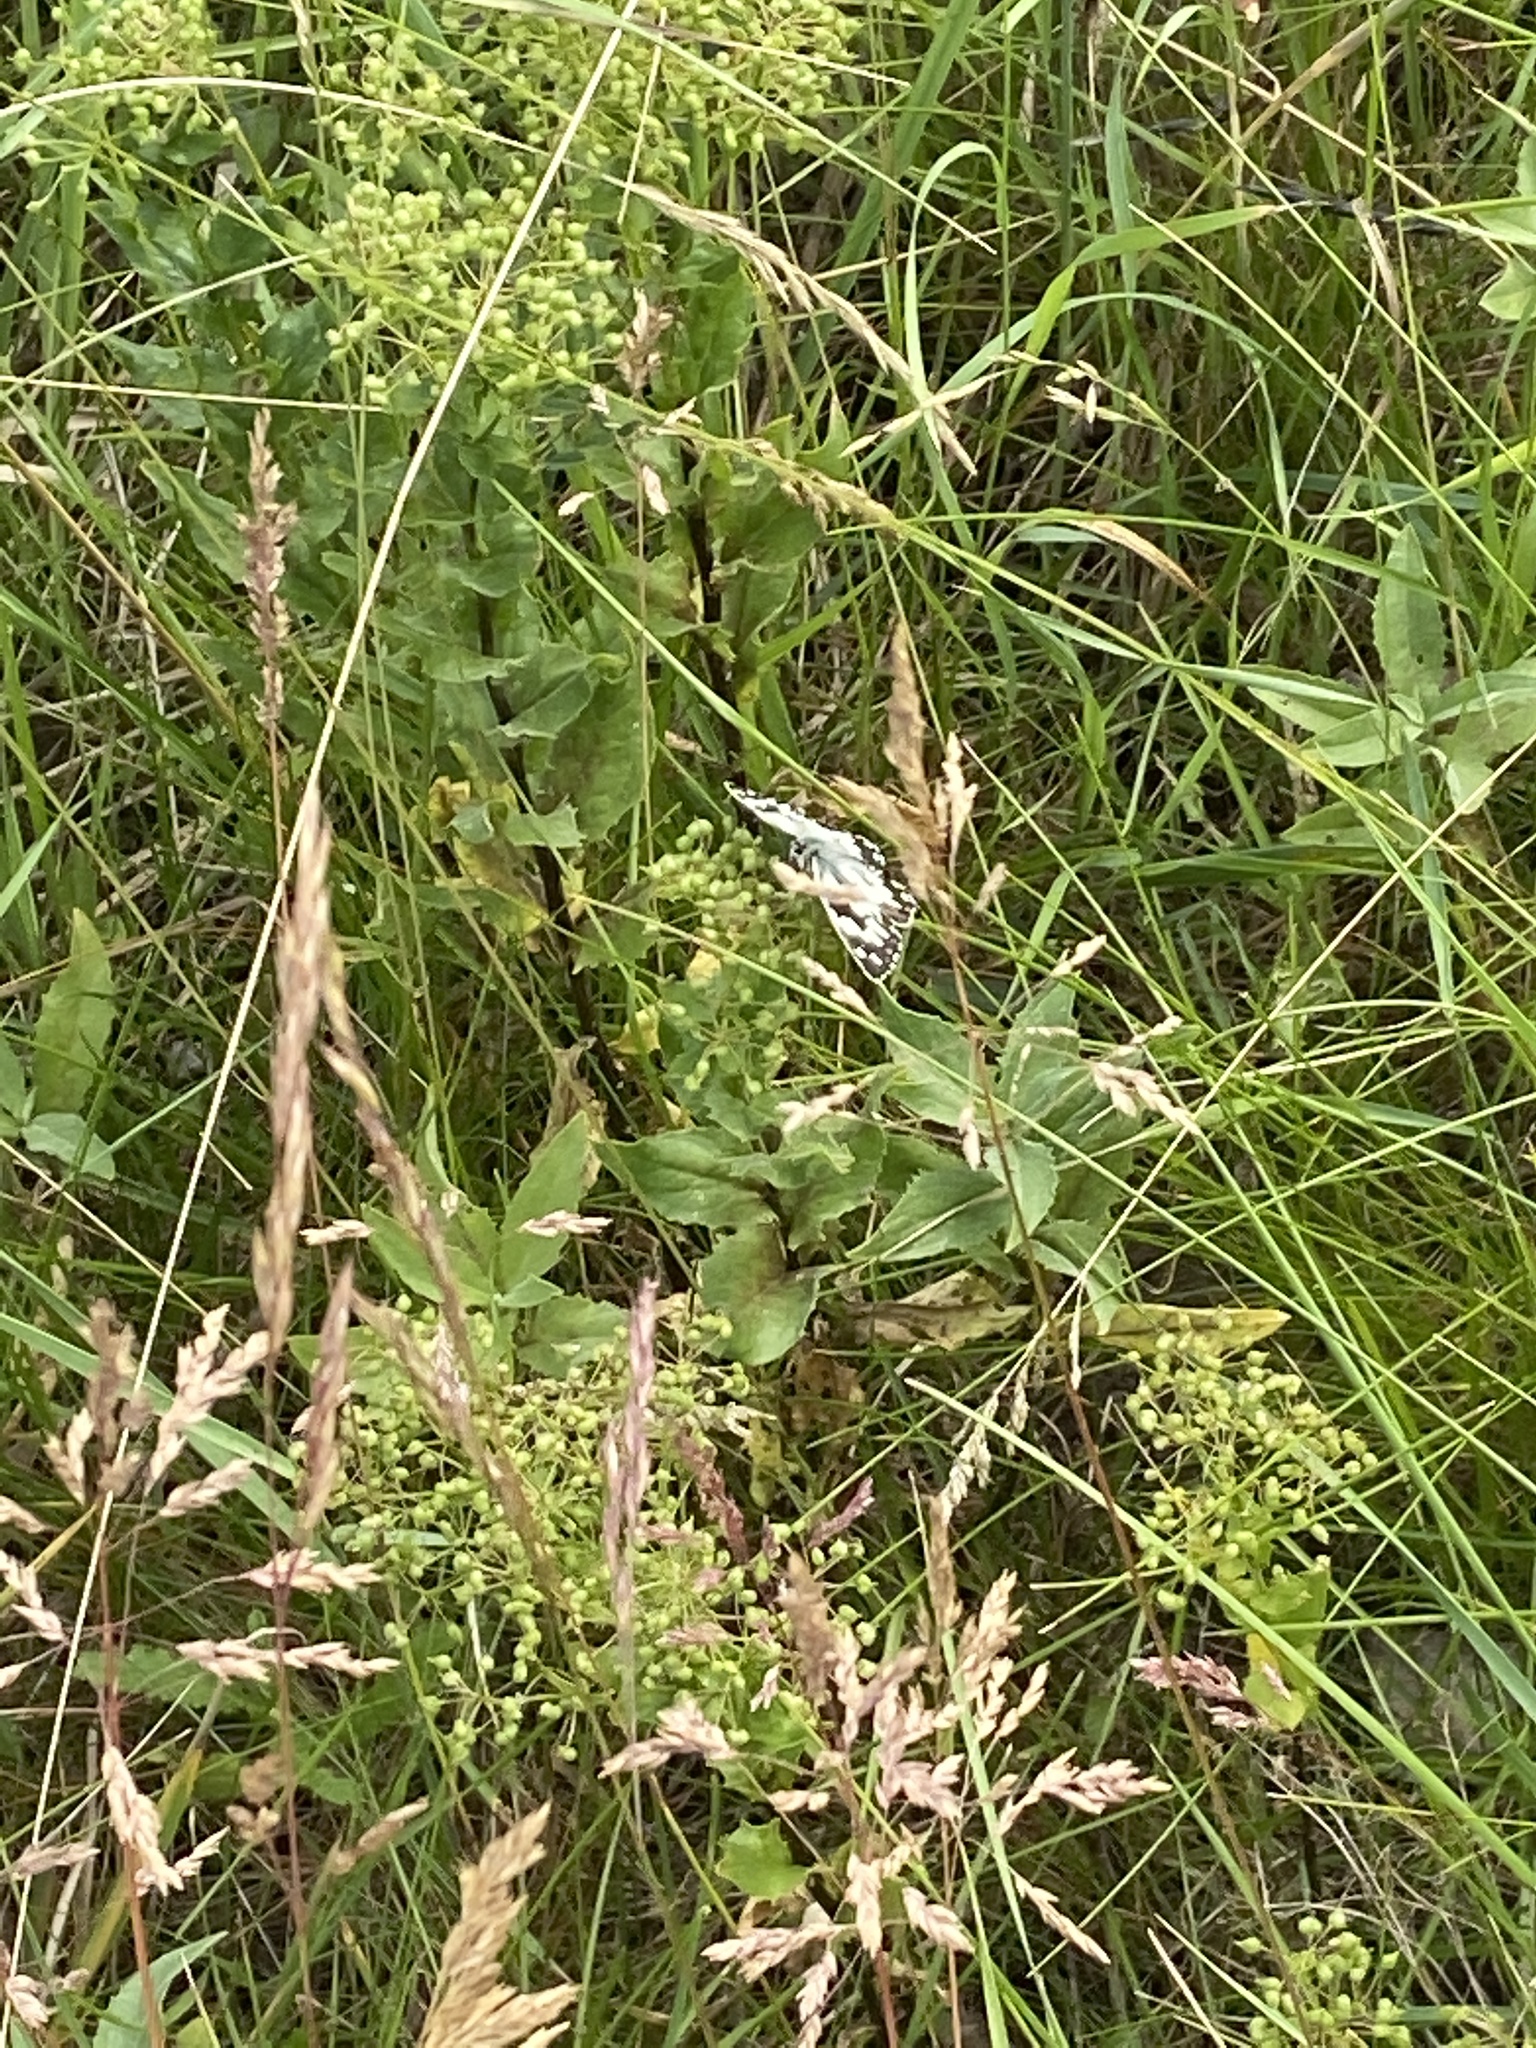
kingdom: Animalia
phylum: Arthropoda
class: Insecta
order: Lepidoptera
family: Nymphalidae
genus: Melanargia
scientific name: Melanargia galathea
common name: Marbled white
